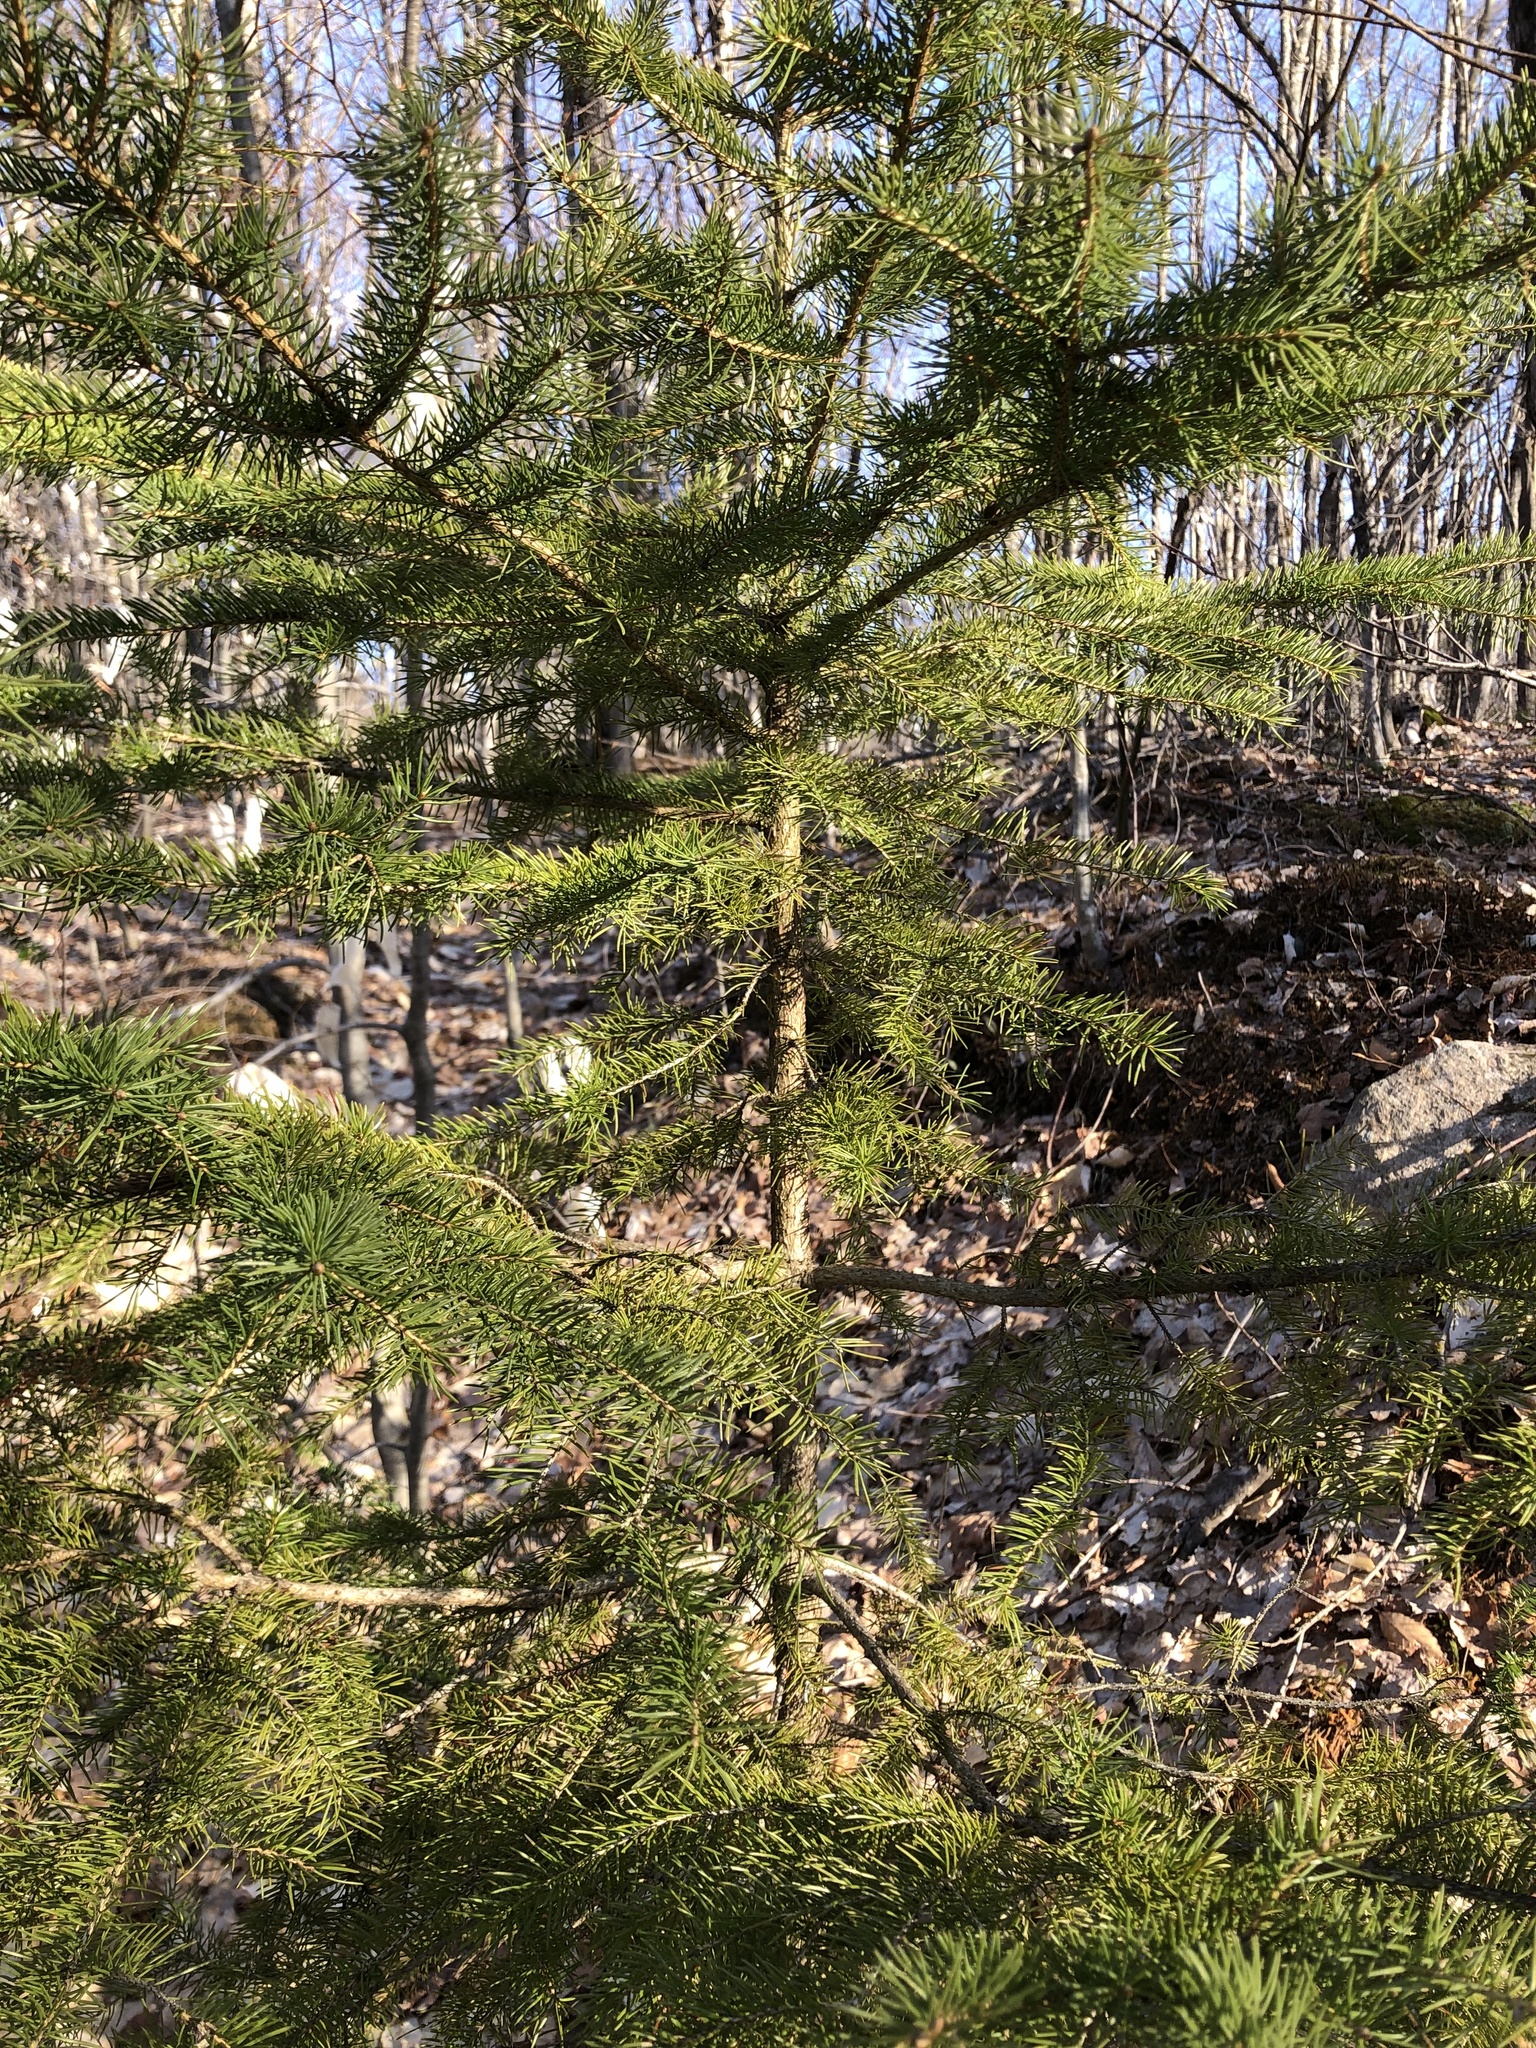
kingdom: Plantae
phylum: Tracheophyta
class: Pinopsida
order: Pinales
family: Pinaceae
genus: Picea
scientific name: Picea glauca
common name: White spruce
